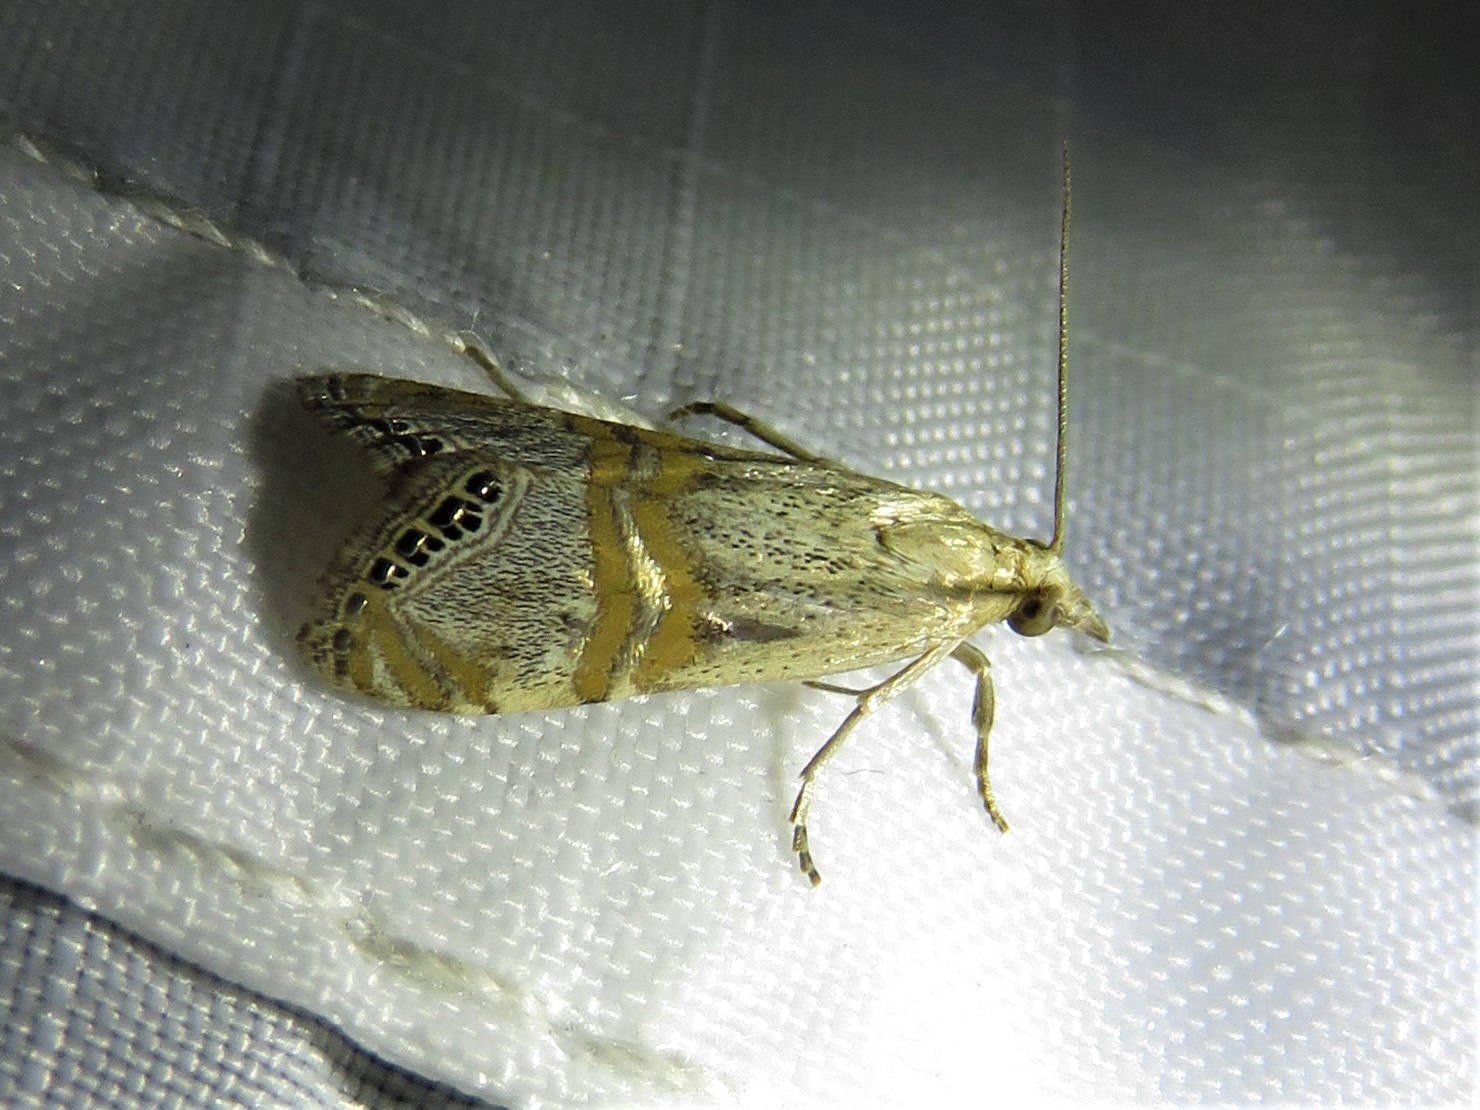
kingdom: Animalia
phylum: Arthropoda
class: Insecta
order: Lepidoptera
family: Crambidae
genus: Euchromius
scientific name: Euchromius ocellea
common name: Necklace veneer moth
